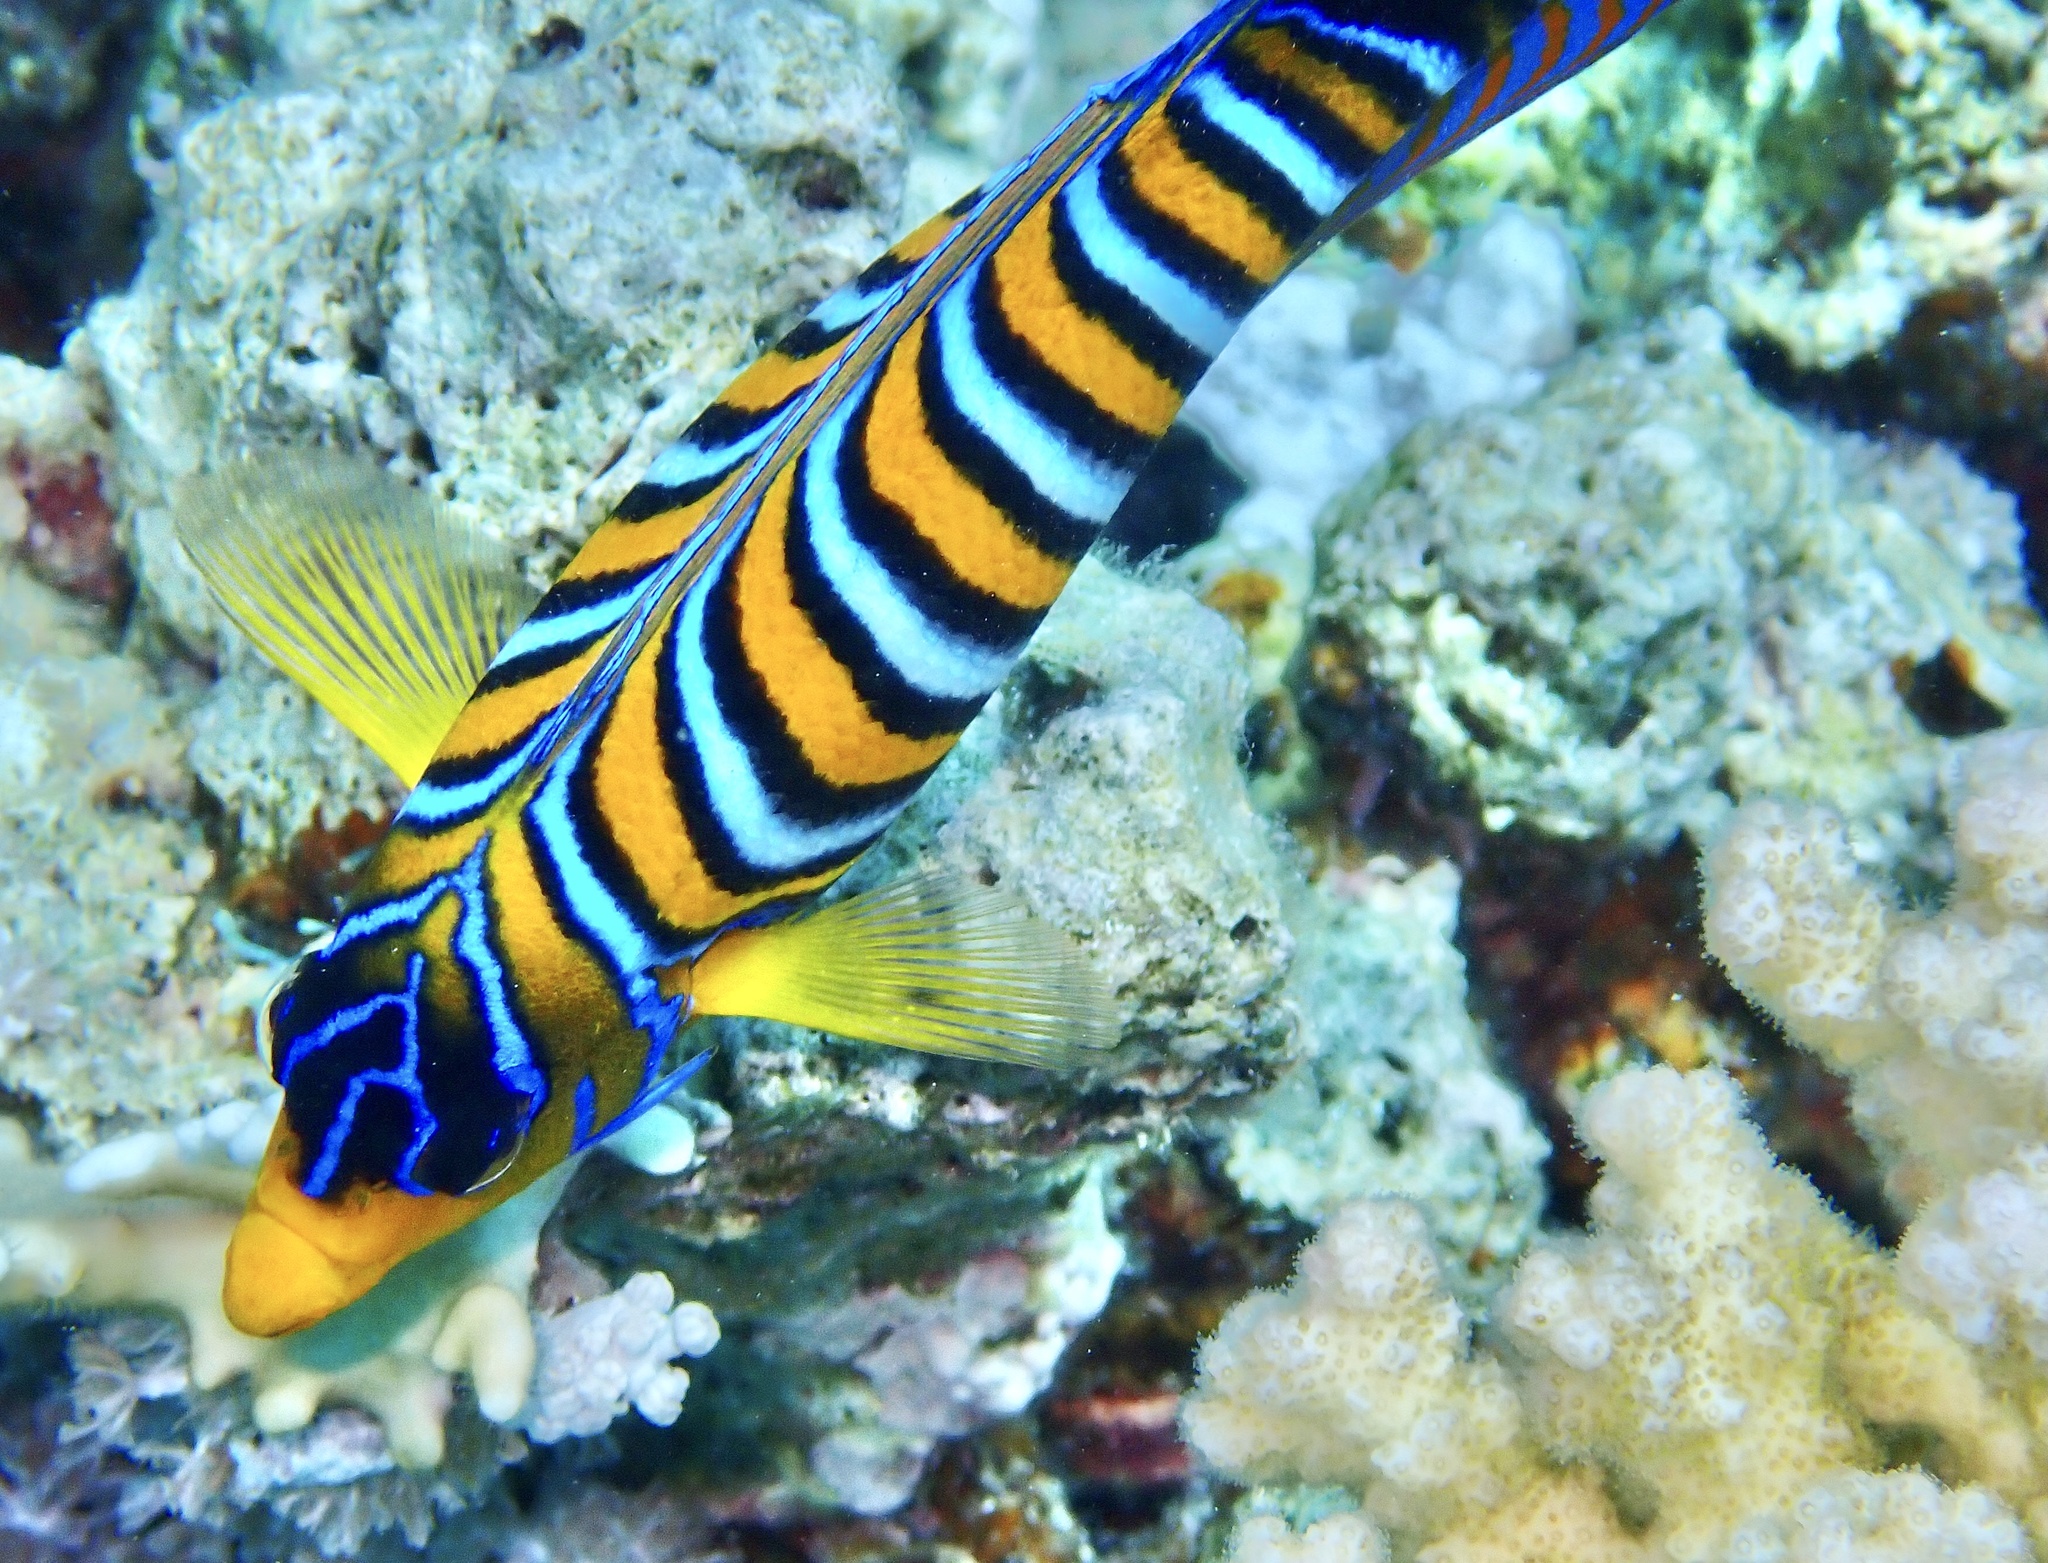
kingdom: Animalia
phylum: Chordata
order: Perciformes
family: Pomacanthidae
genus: Pygoplites
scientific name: Pygoplites diacanthus
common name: Regal angelfish
